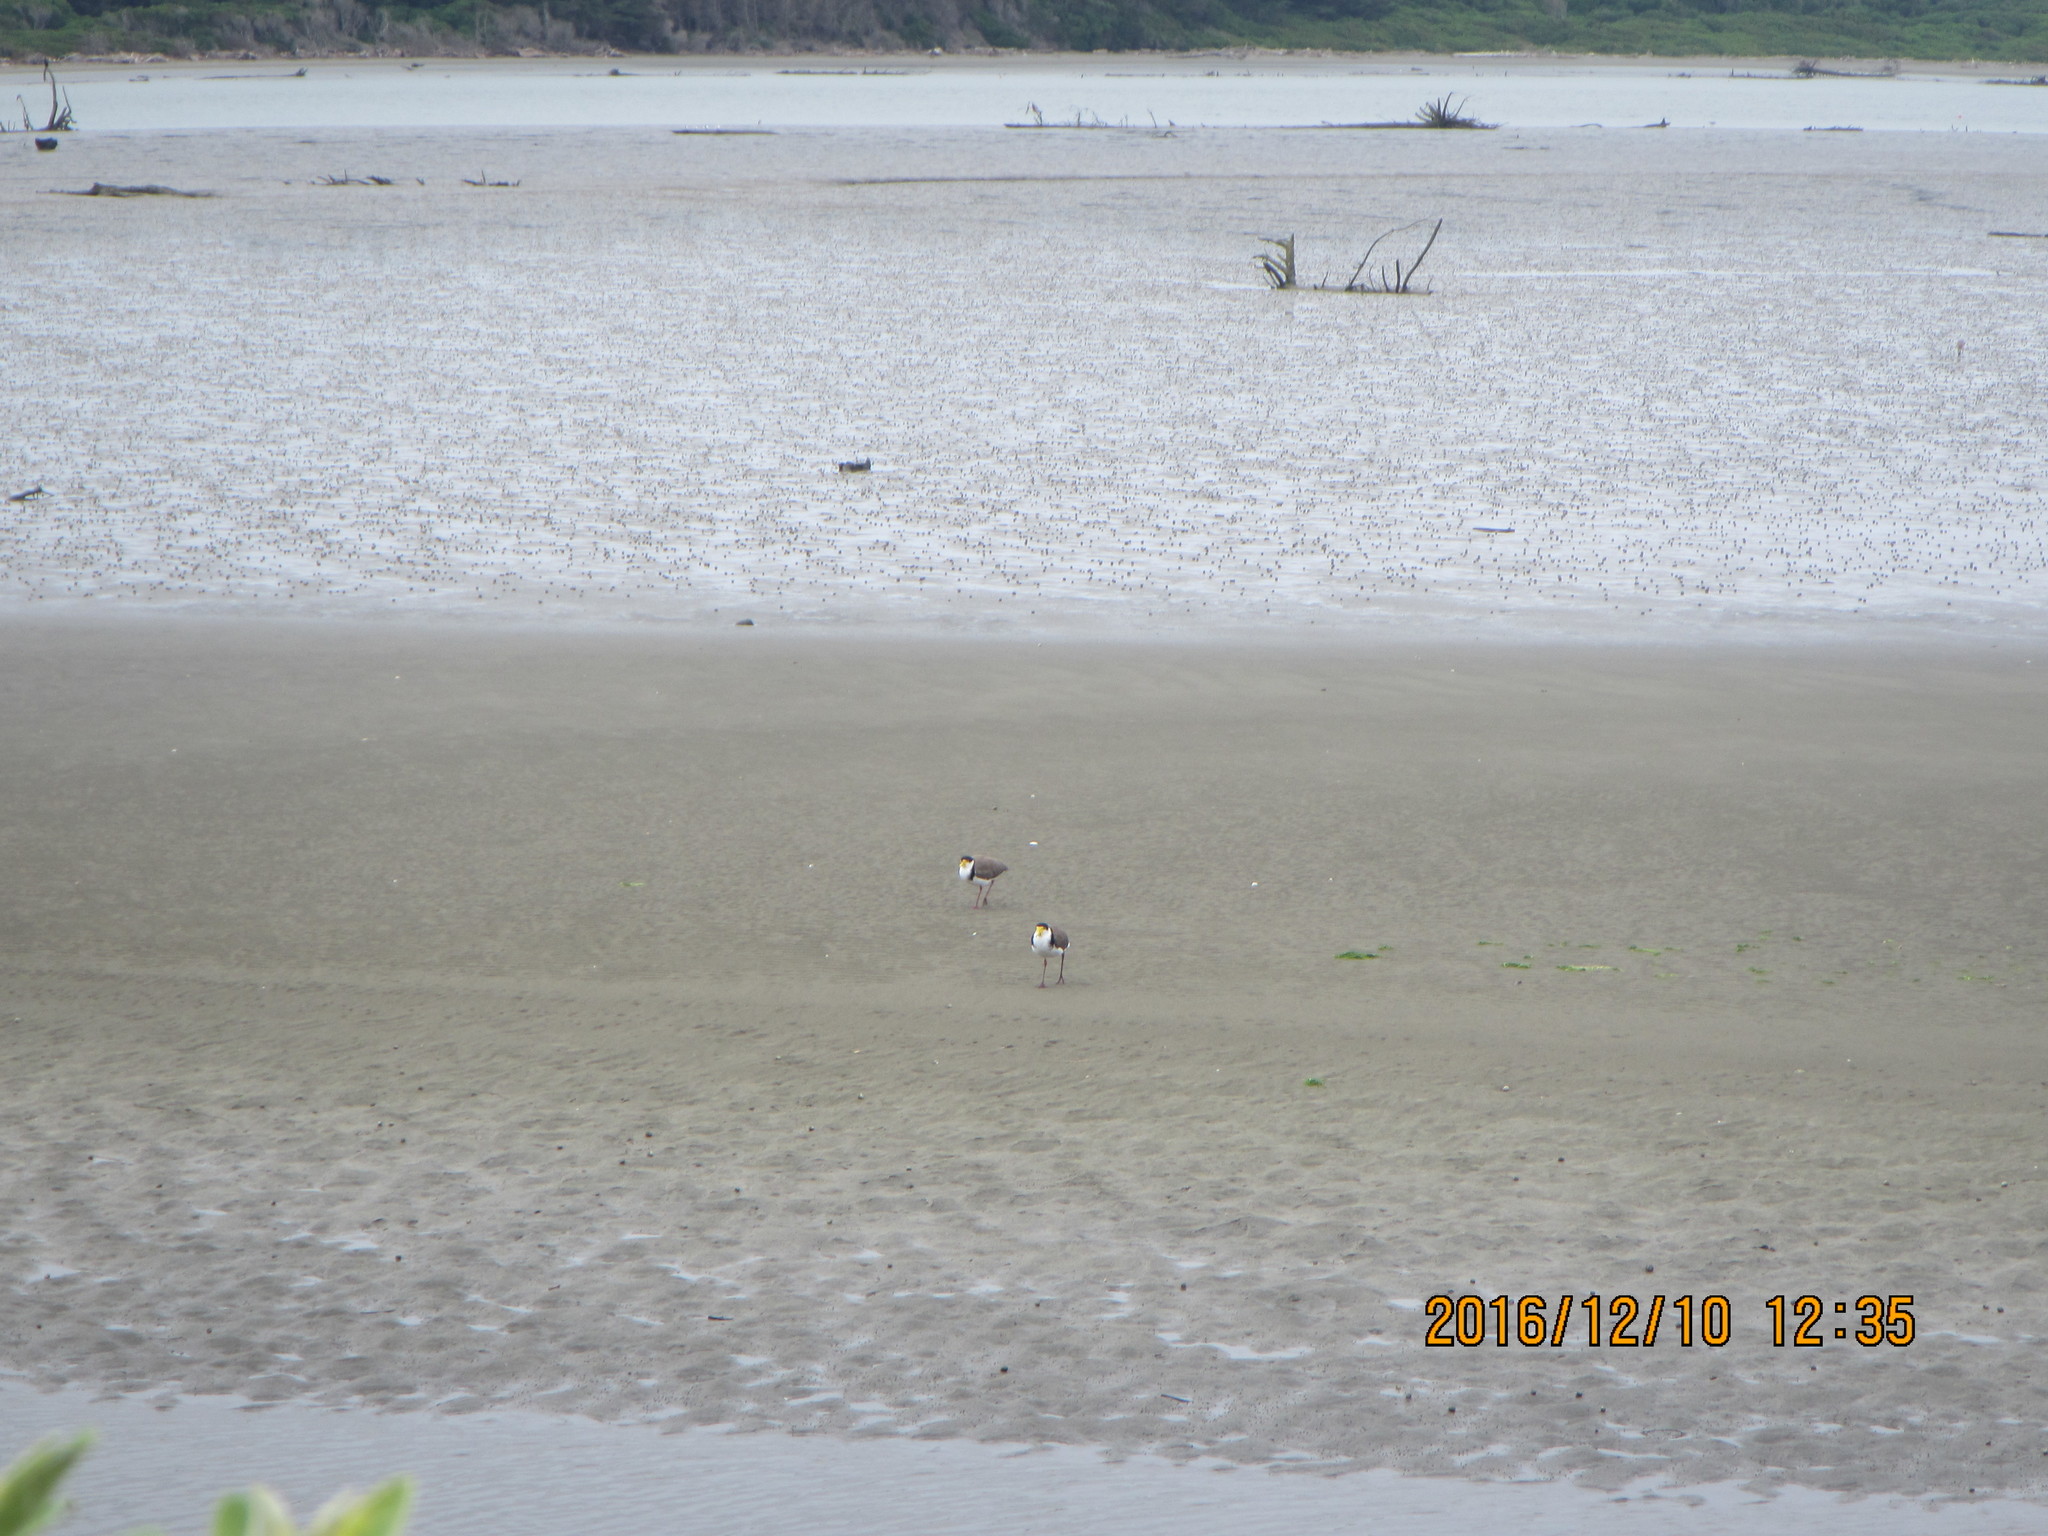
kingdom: Animalia
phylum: Chordata
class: Aves
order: Charadriiformes
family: Charadriidae
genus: Vanellus
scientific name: Vanellus miles
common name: Masked lapwing
